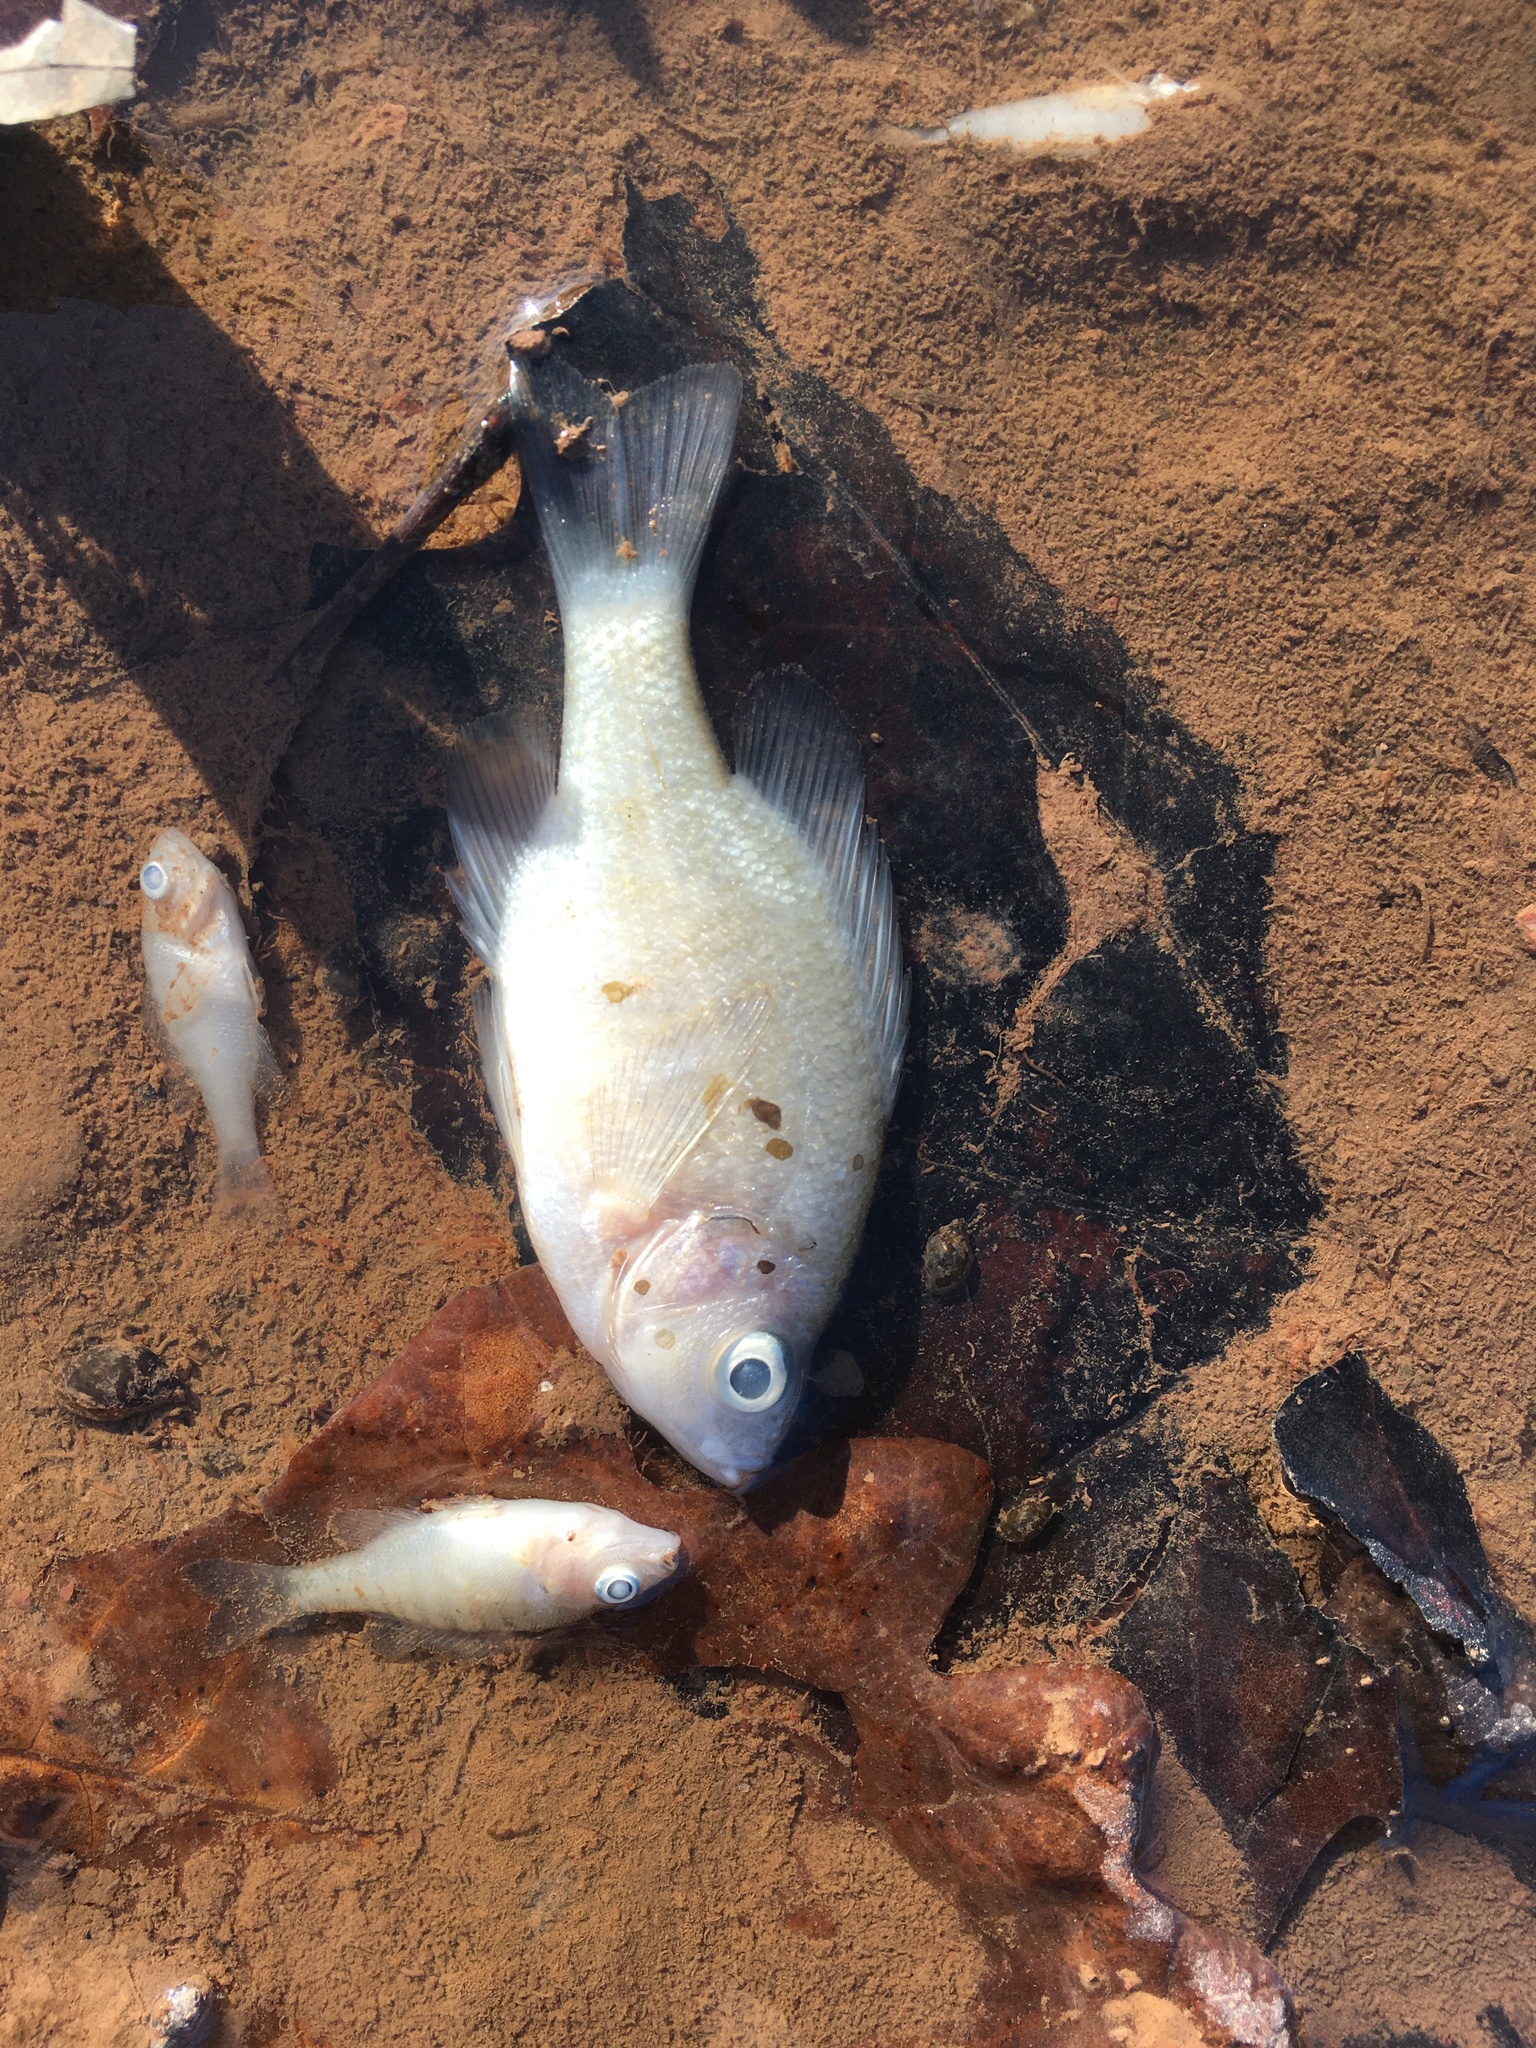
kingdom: Animalia
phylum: Chordata
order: Perciformes
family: Centrarchidae
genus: Lepomis
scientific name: Lepomis macrochirus
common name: Bluegill
